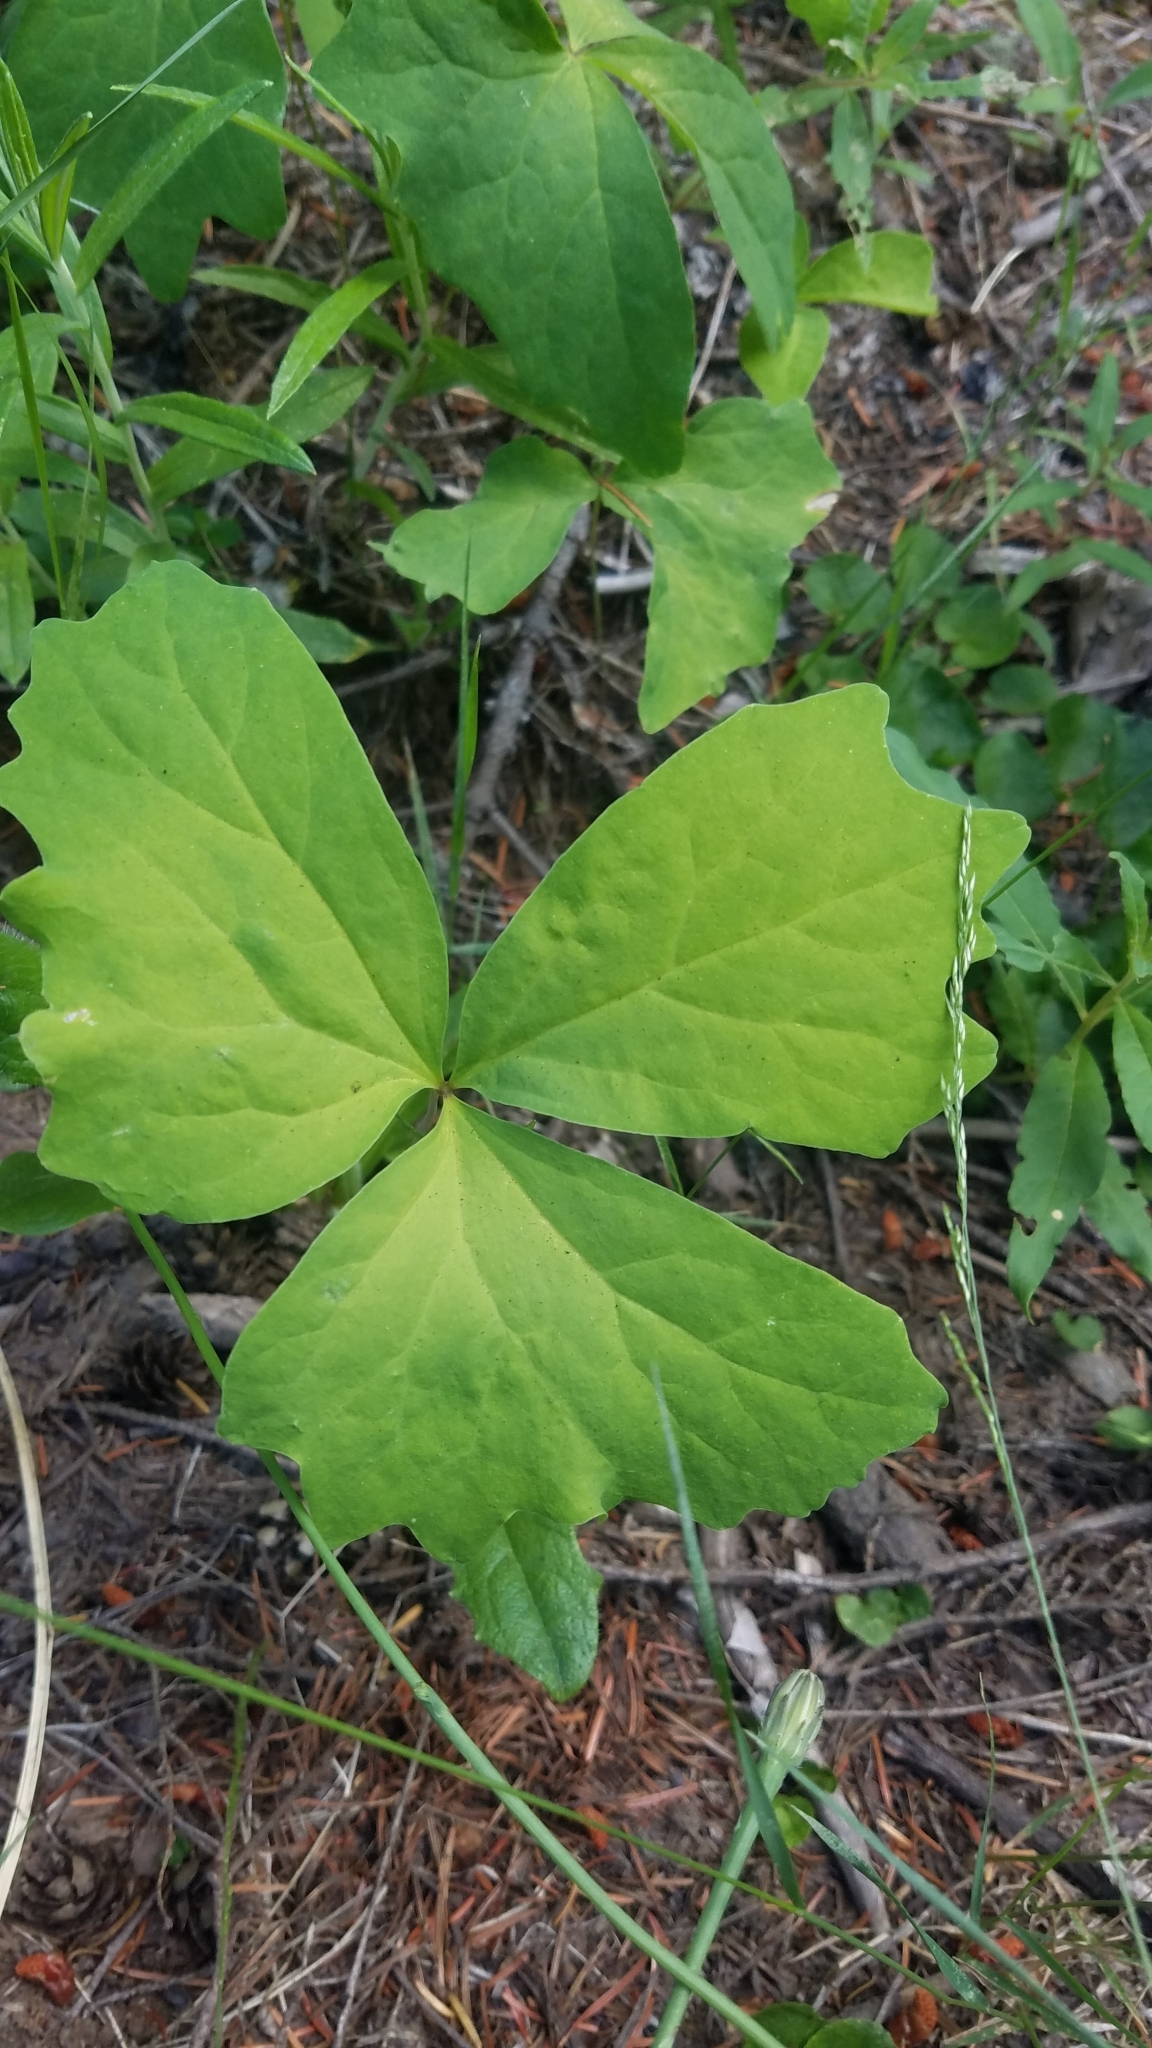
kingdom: Plantae
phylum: Tracheophyta
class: Magnoliopsida
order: Ranunculales
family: Berberidaceae
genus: Achlys
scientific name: Achlys triphylla
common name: Vanilla-leaf
